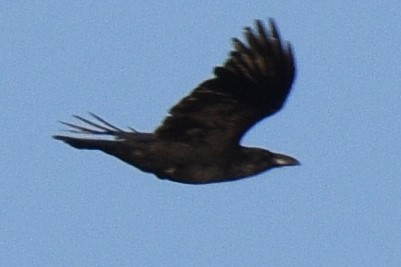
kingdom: Animalia
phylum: Chordata
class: Aves
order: Passeriformes
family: Corvidae
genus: Corvus
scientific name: Corvus corax
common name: Common raven
